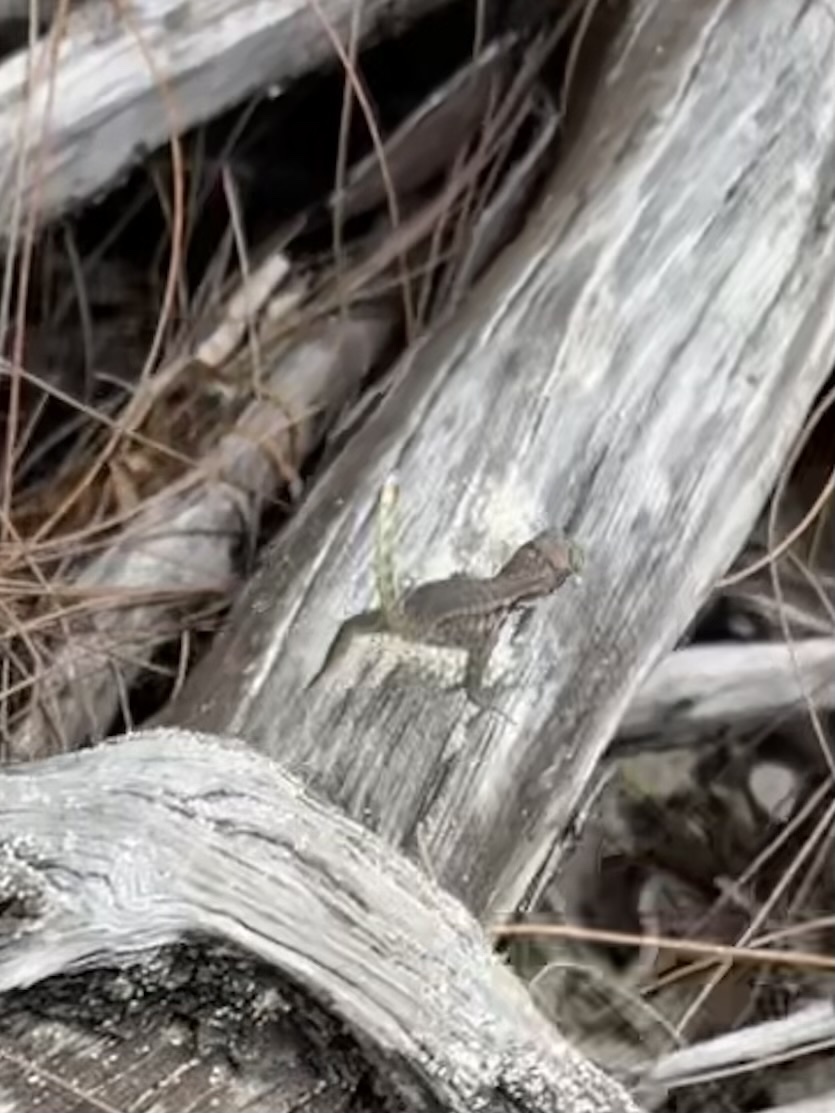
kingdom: Animalia
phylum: Chordata
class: Squamata
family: Leiocephalidae
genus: Leiocephalus
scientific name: Leiocephalus varius
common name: Cayman curlytail
